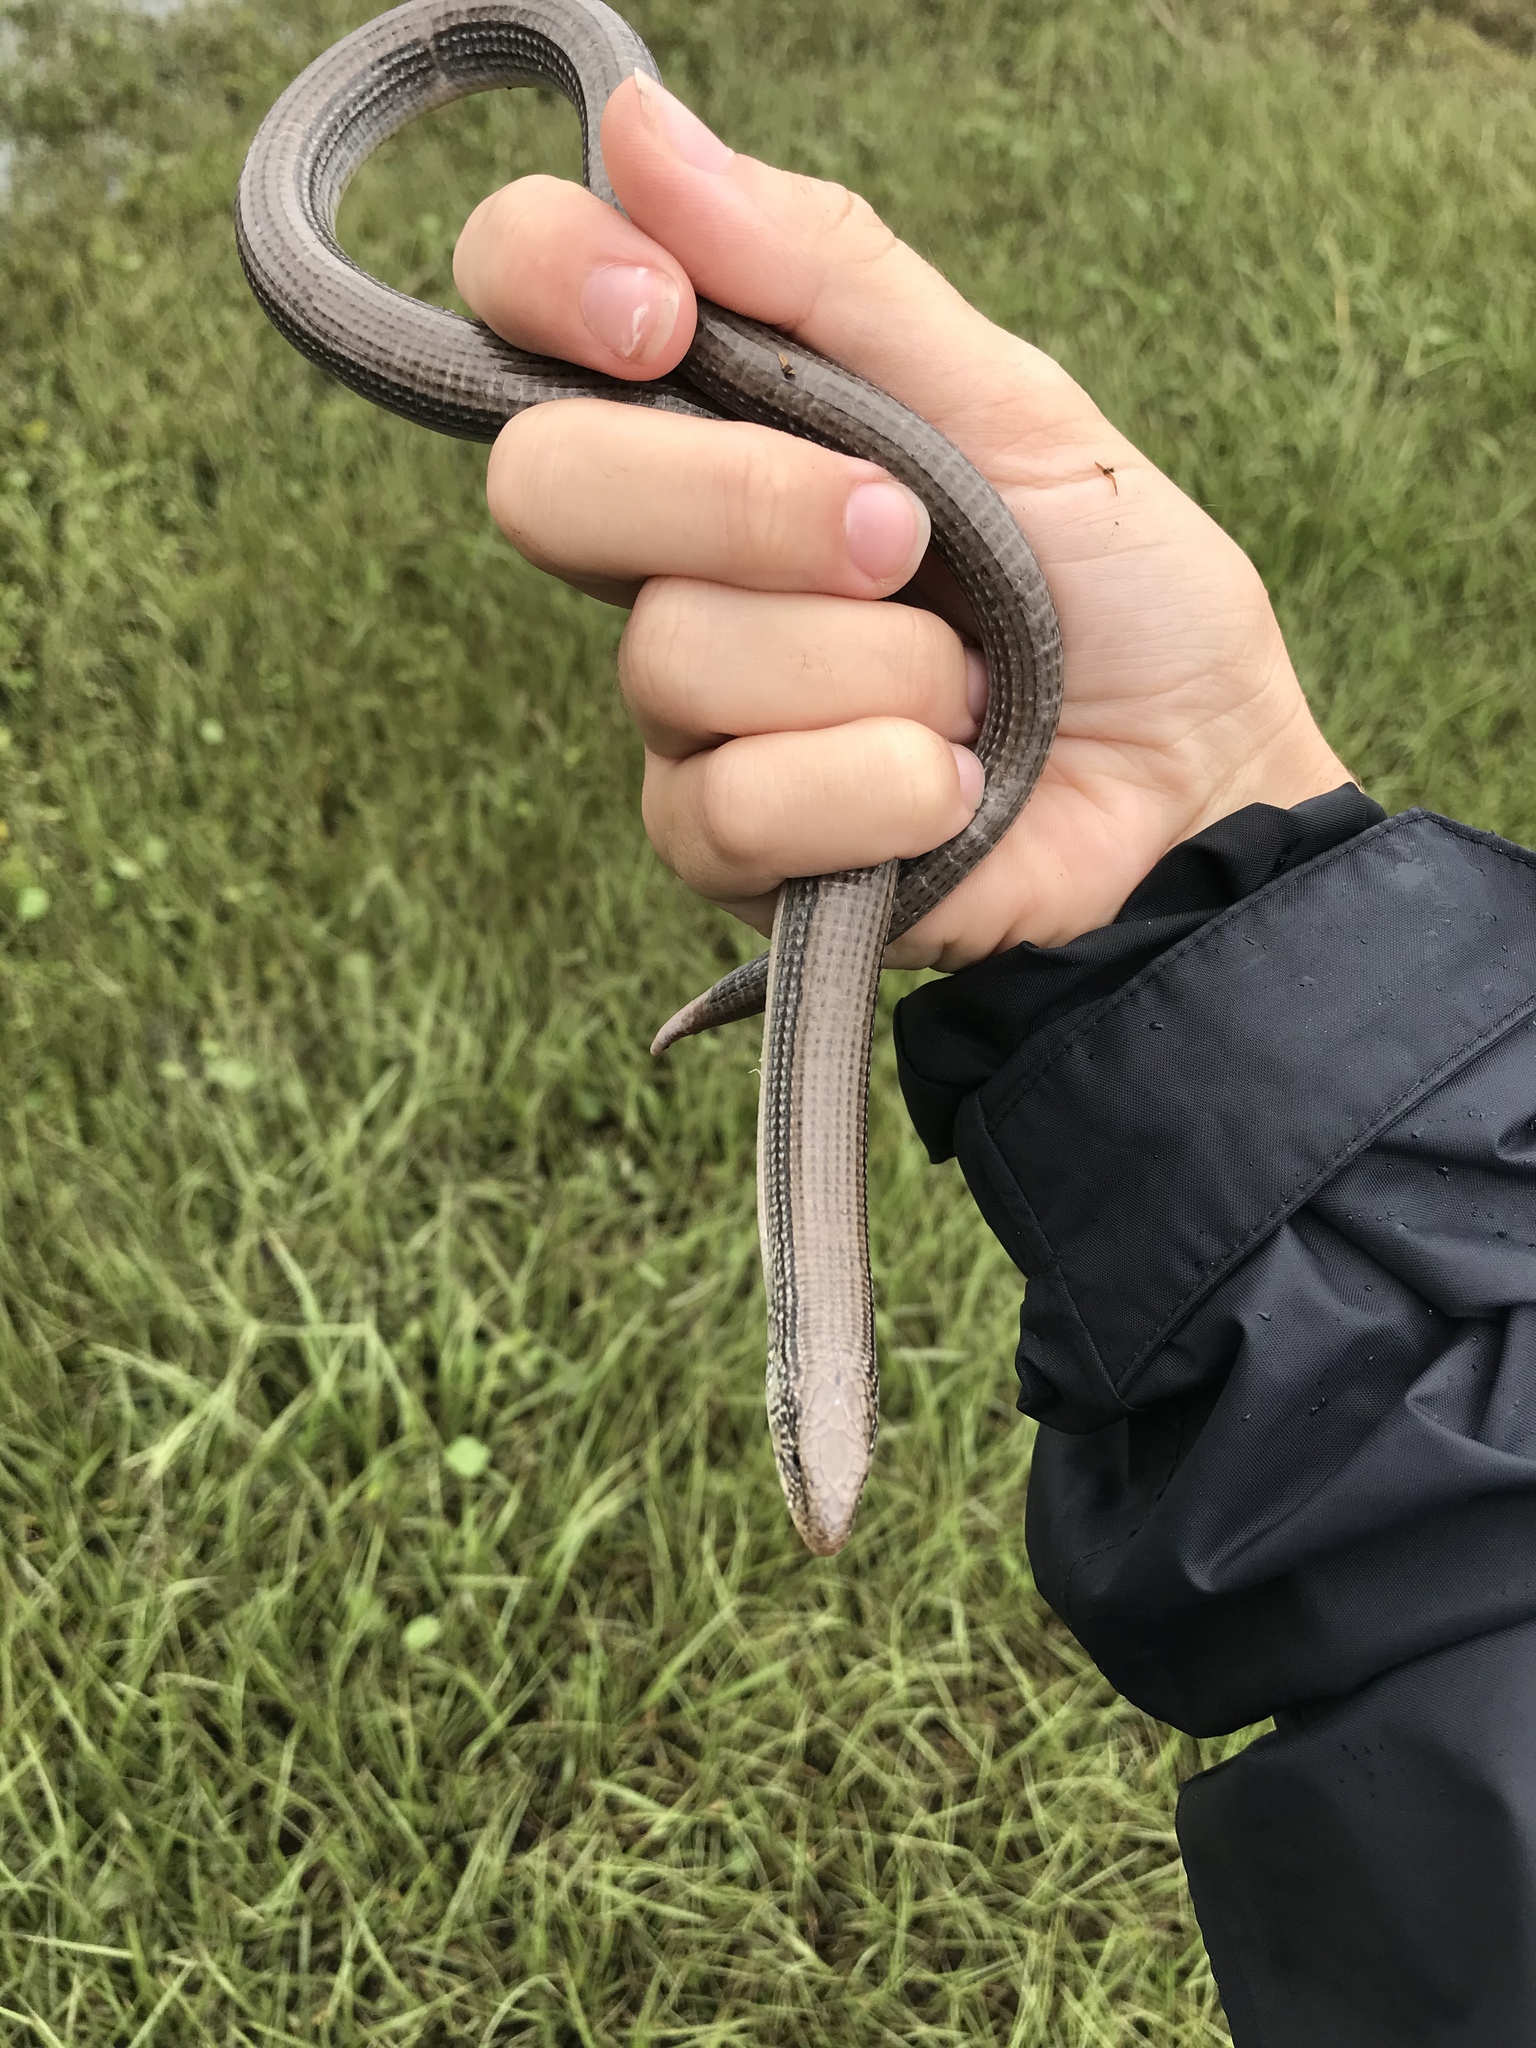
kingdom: Animalia
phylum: Chordata
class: Squamata
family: Anguidae
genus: Ophisaurus
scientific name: Ophisaurus ventralis
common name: Eastern glass lizard
